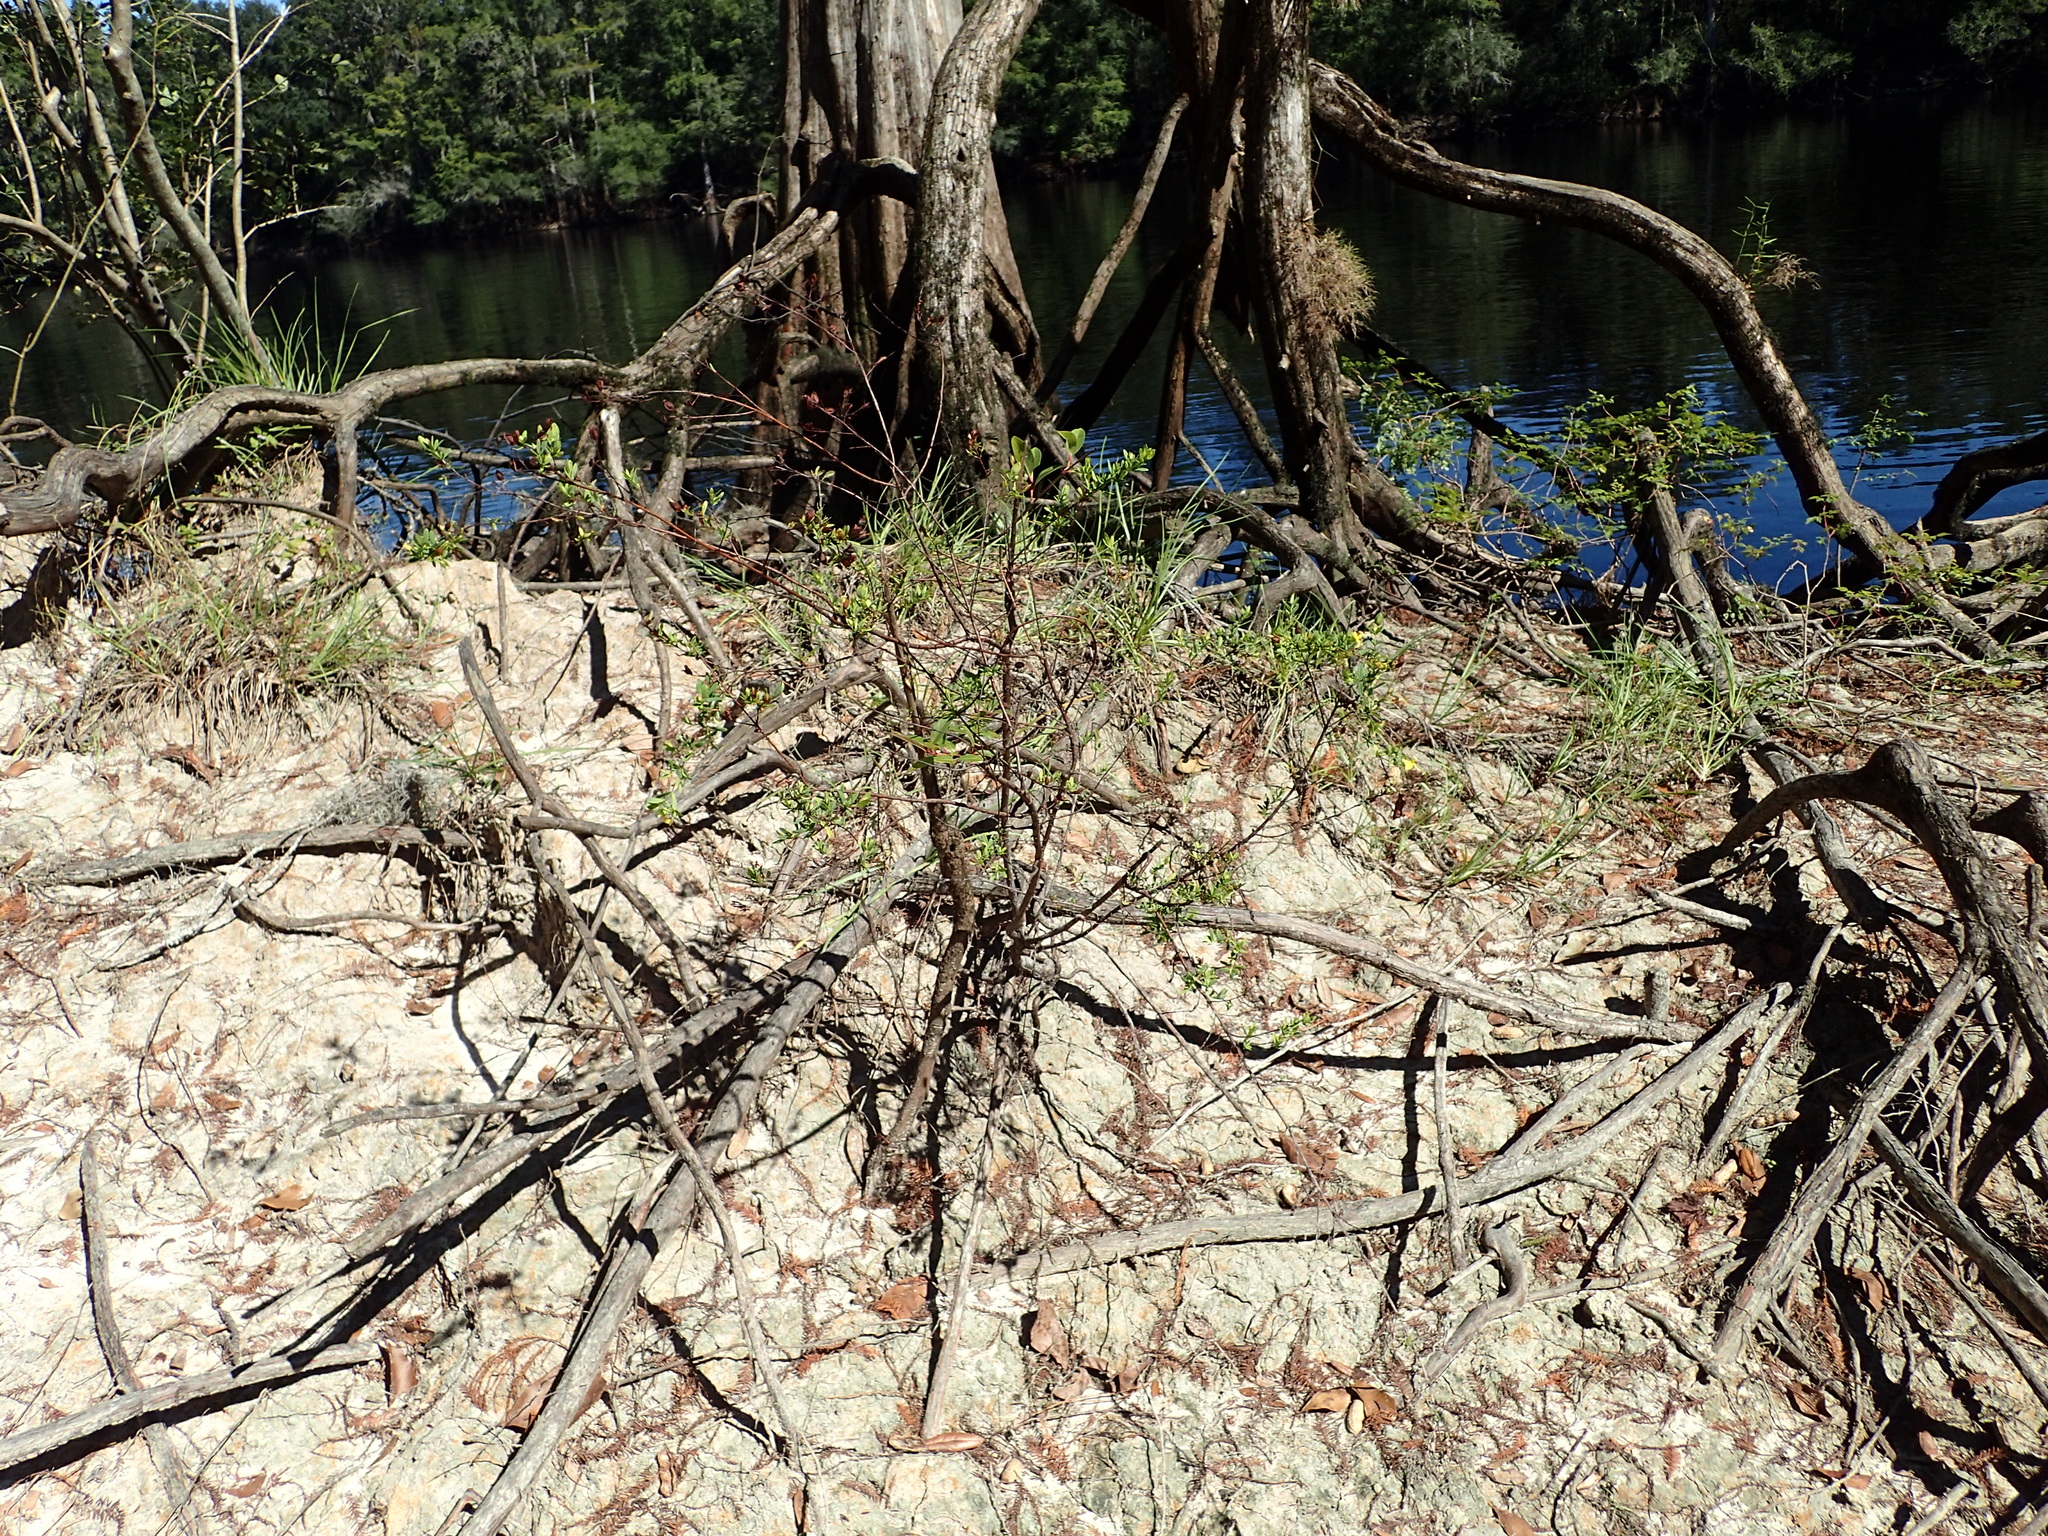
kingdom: Plantae
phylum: Tracheophyta
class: Magnoliopsida
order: Malpighiales
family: Hypericaceae
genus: Hypericum
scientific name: Hypericum hypericoides
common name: St. andrew's cross
